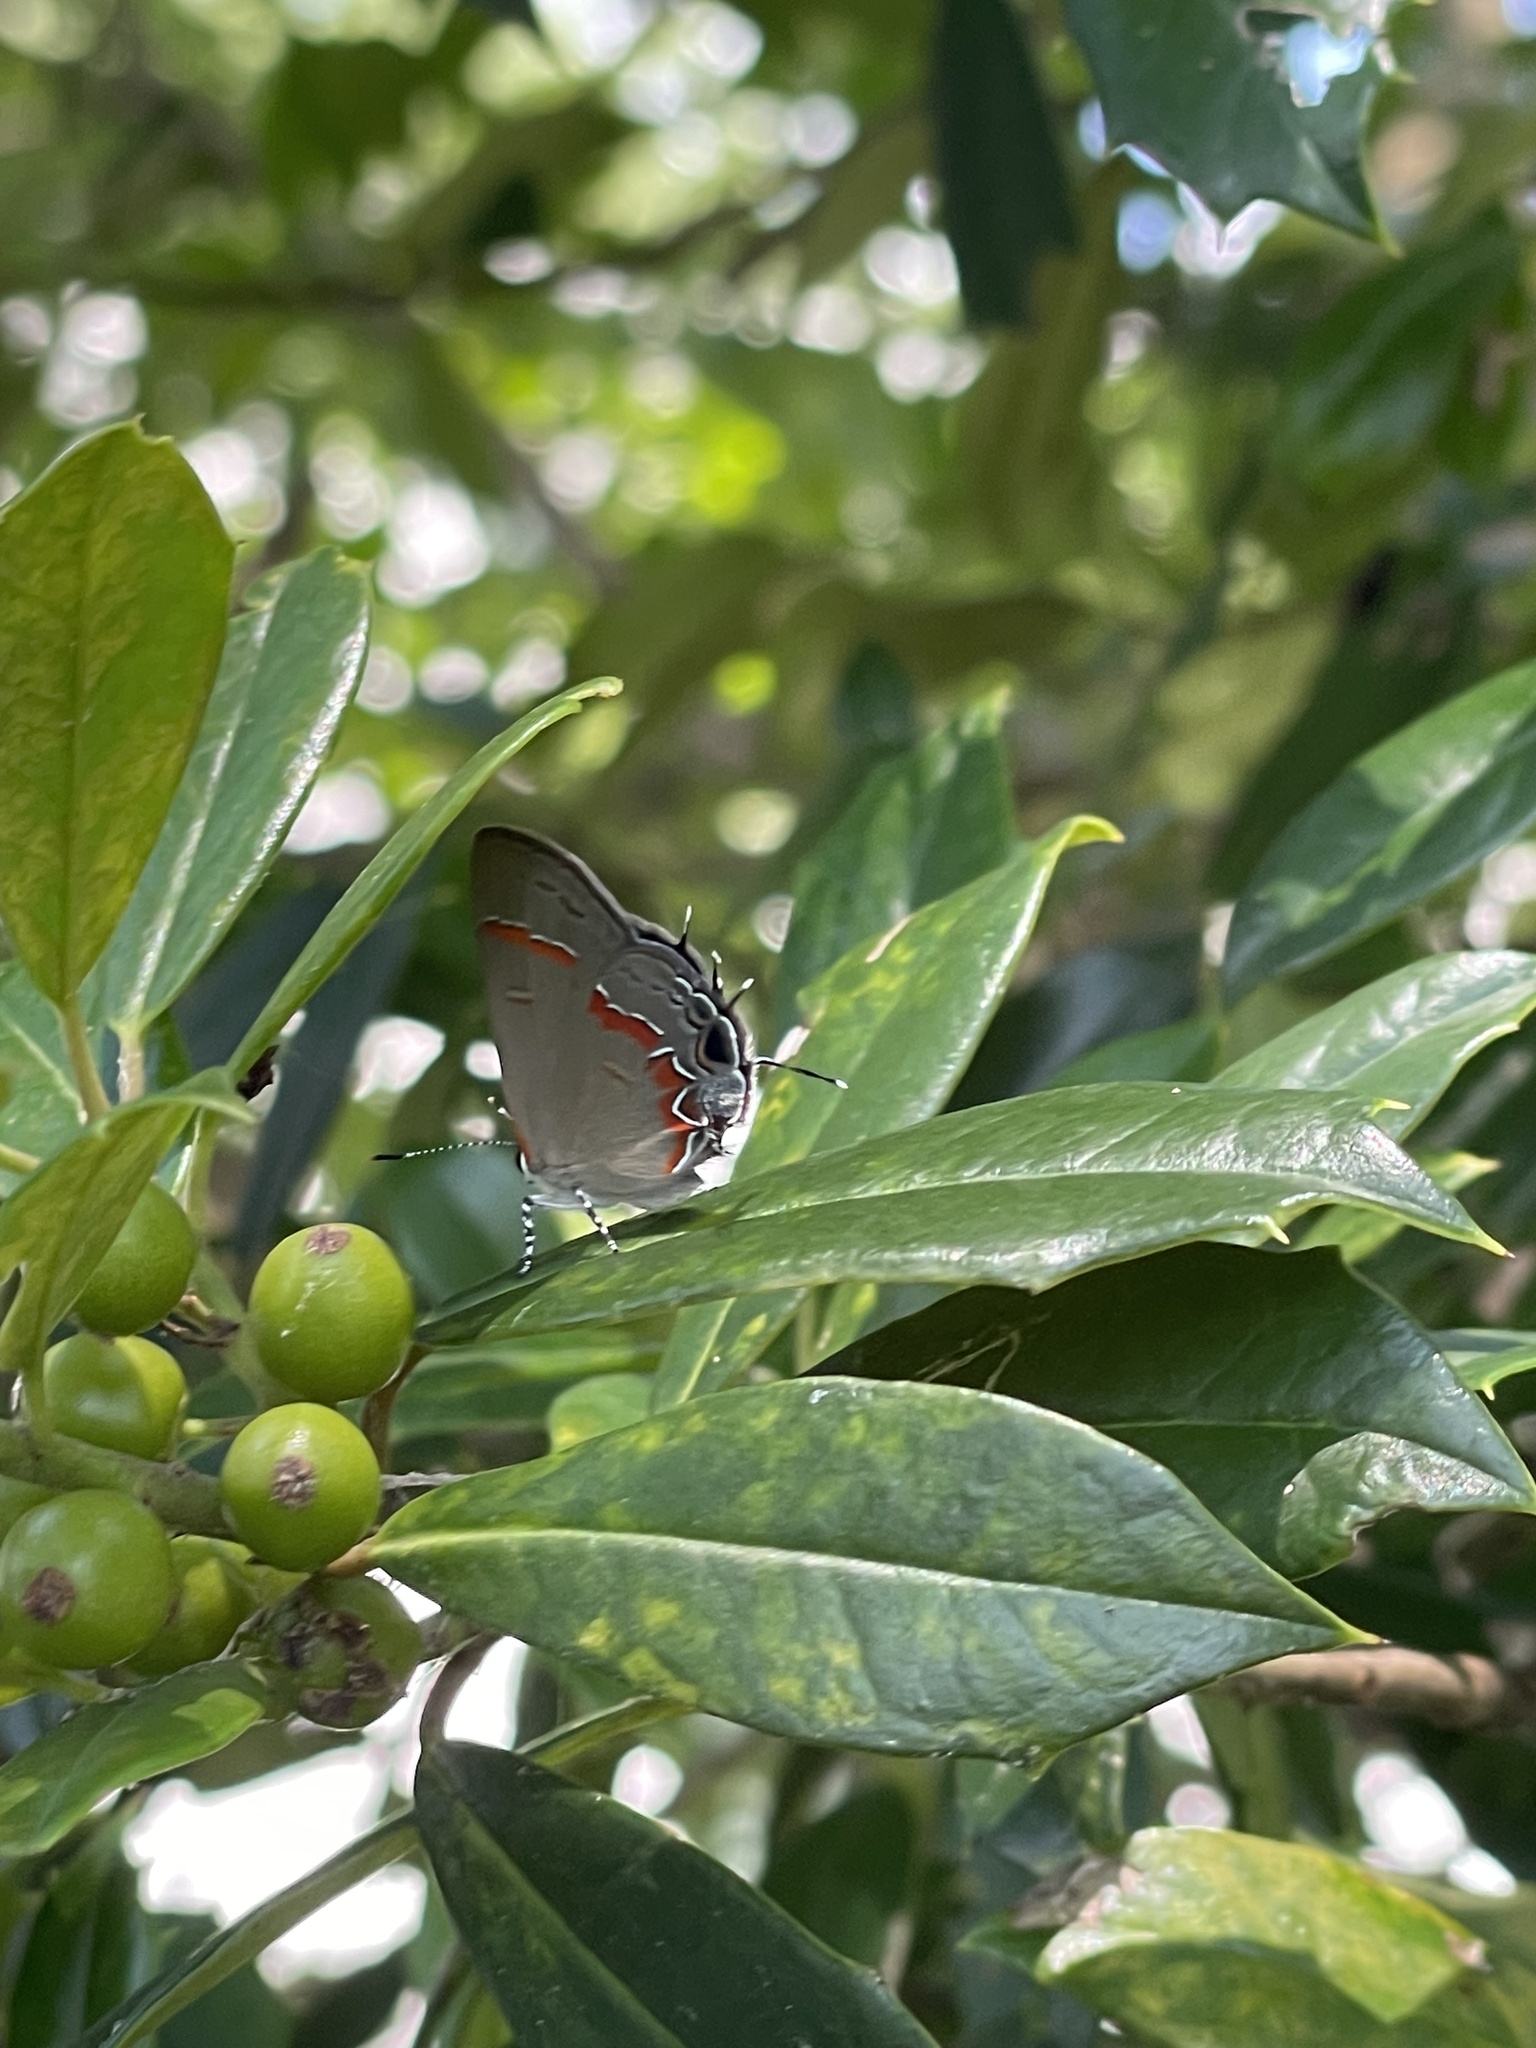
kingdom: Animalia
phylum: Arthropoda
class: Insecta
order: Lepidoptera
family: Lycaenidae
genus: Calycopis
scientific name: Calycopis cecrops
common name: Red-banded hairstreak
